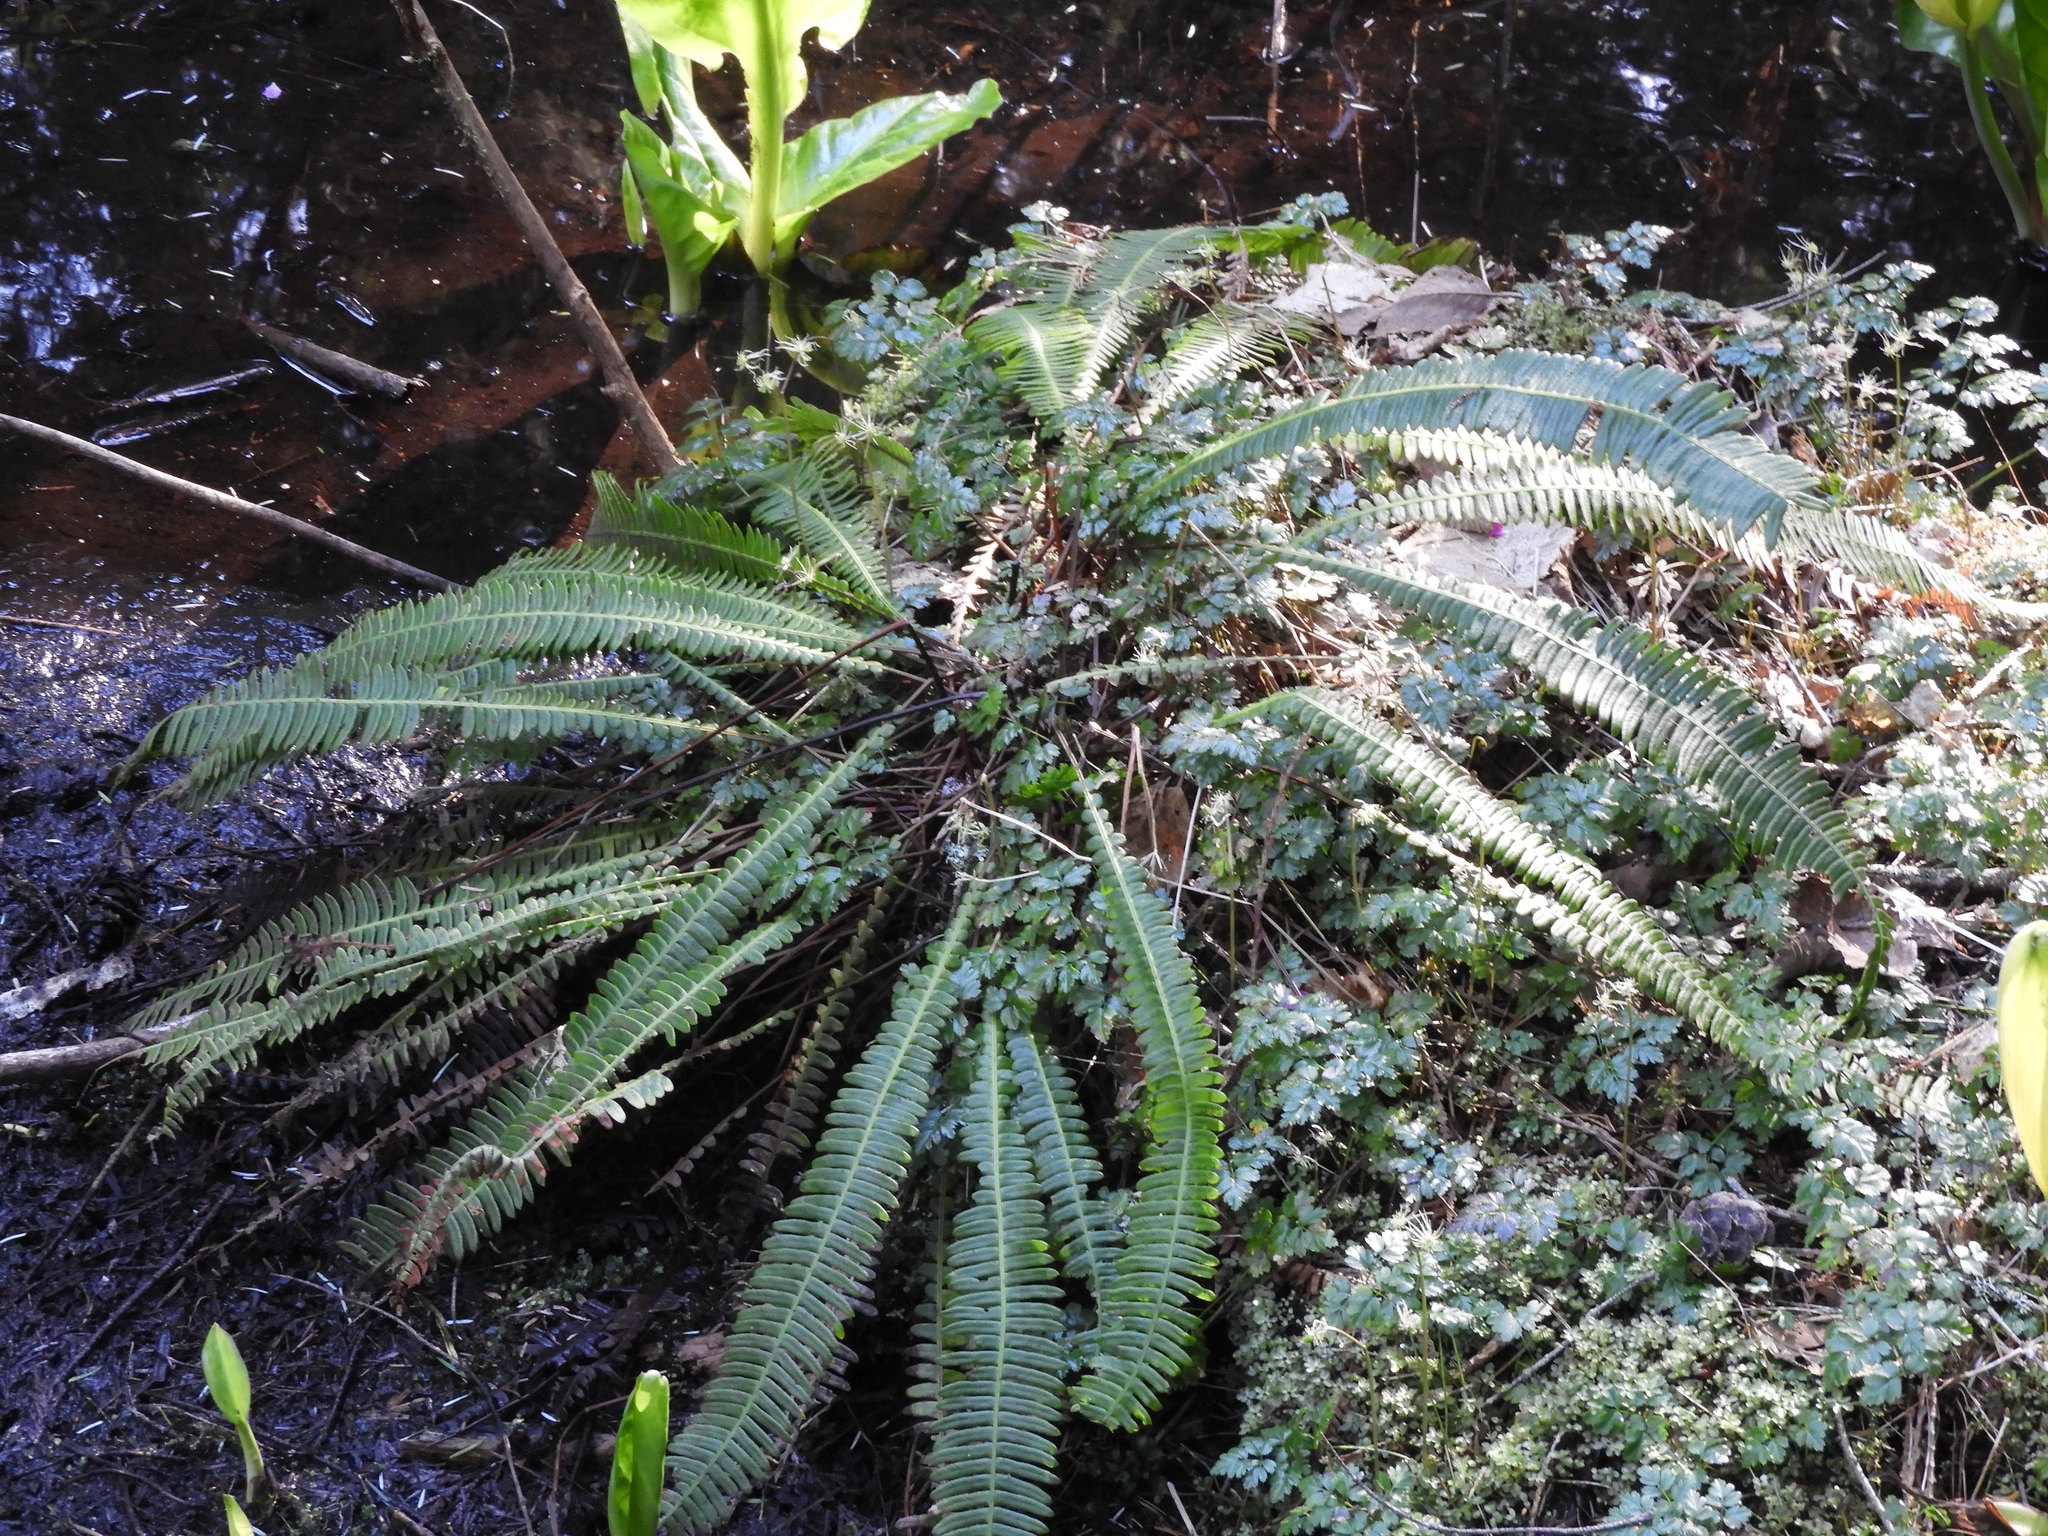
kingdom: Plantae
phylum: Tracheophyta
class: Polypodiopsida
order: Polypodiales
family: Blechnaceae
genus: Struthiopteris
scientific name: Struthiopteris spicant
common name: Deer fern
